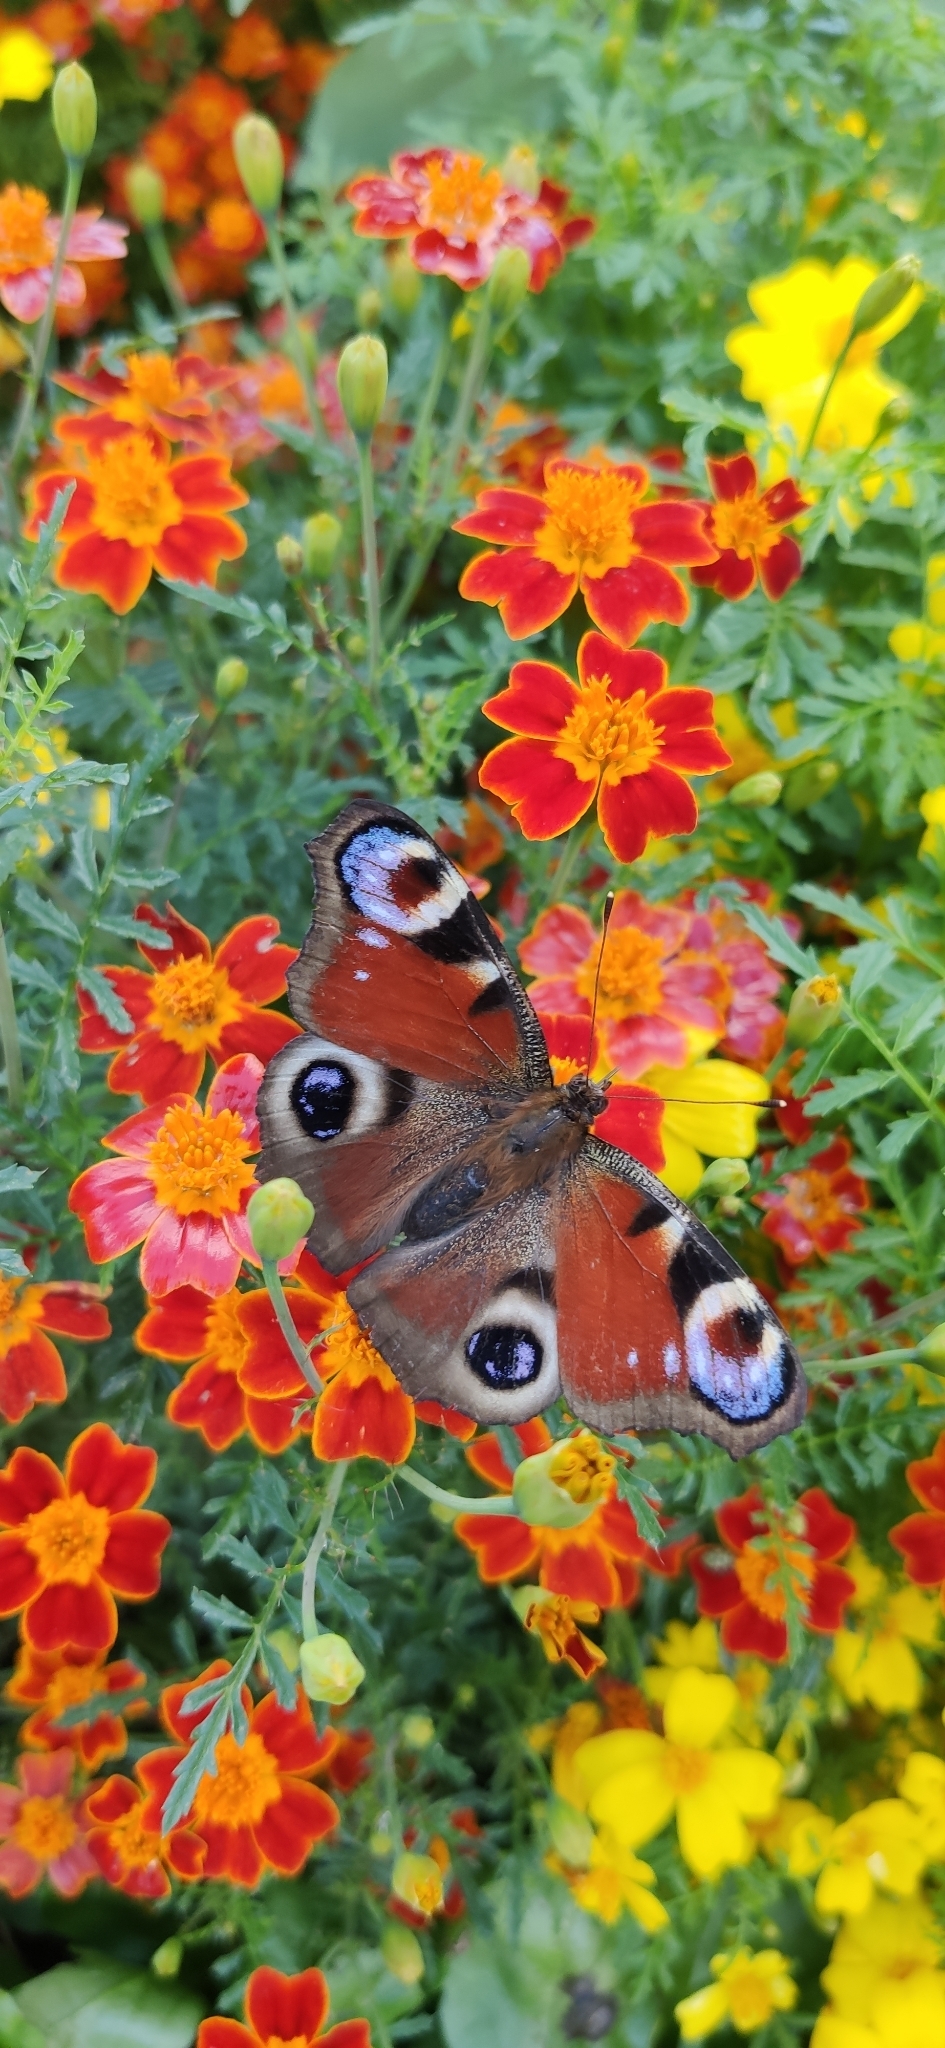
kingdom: Animalia
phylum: Arthropoda
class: Insecta
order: Lepidoptera
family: Nymphalidae
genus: Aglais
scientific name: Aglais io
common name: Peacock
